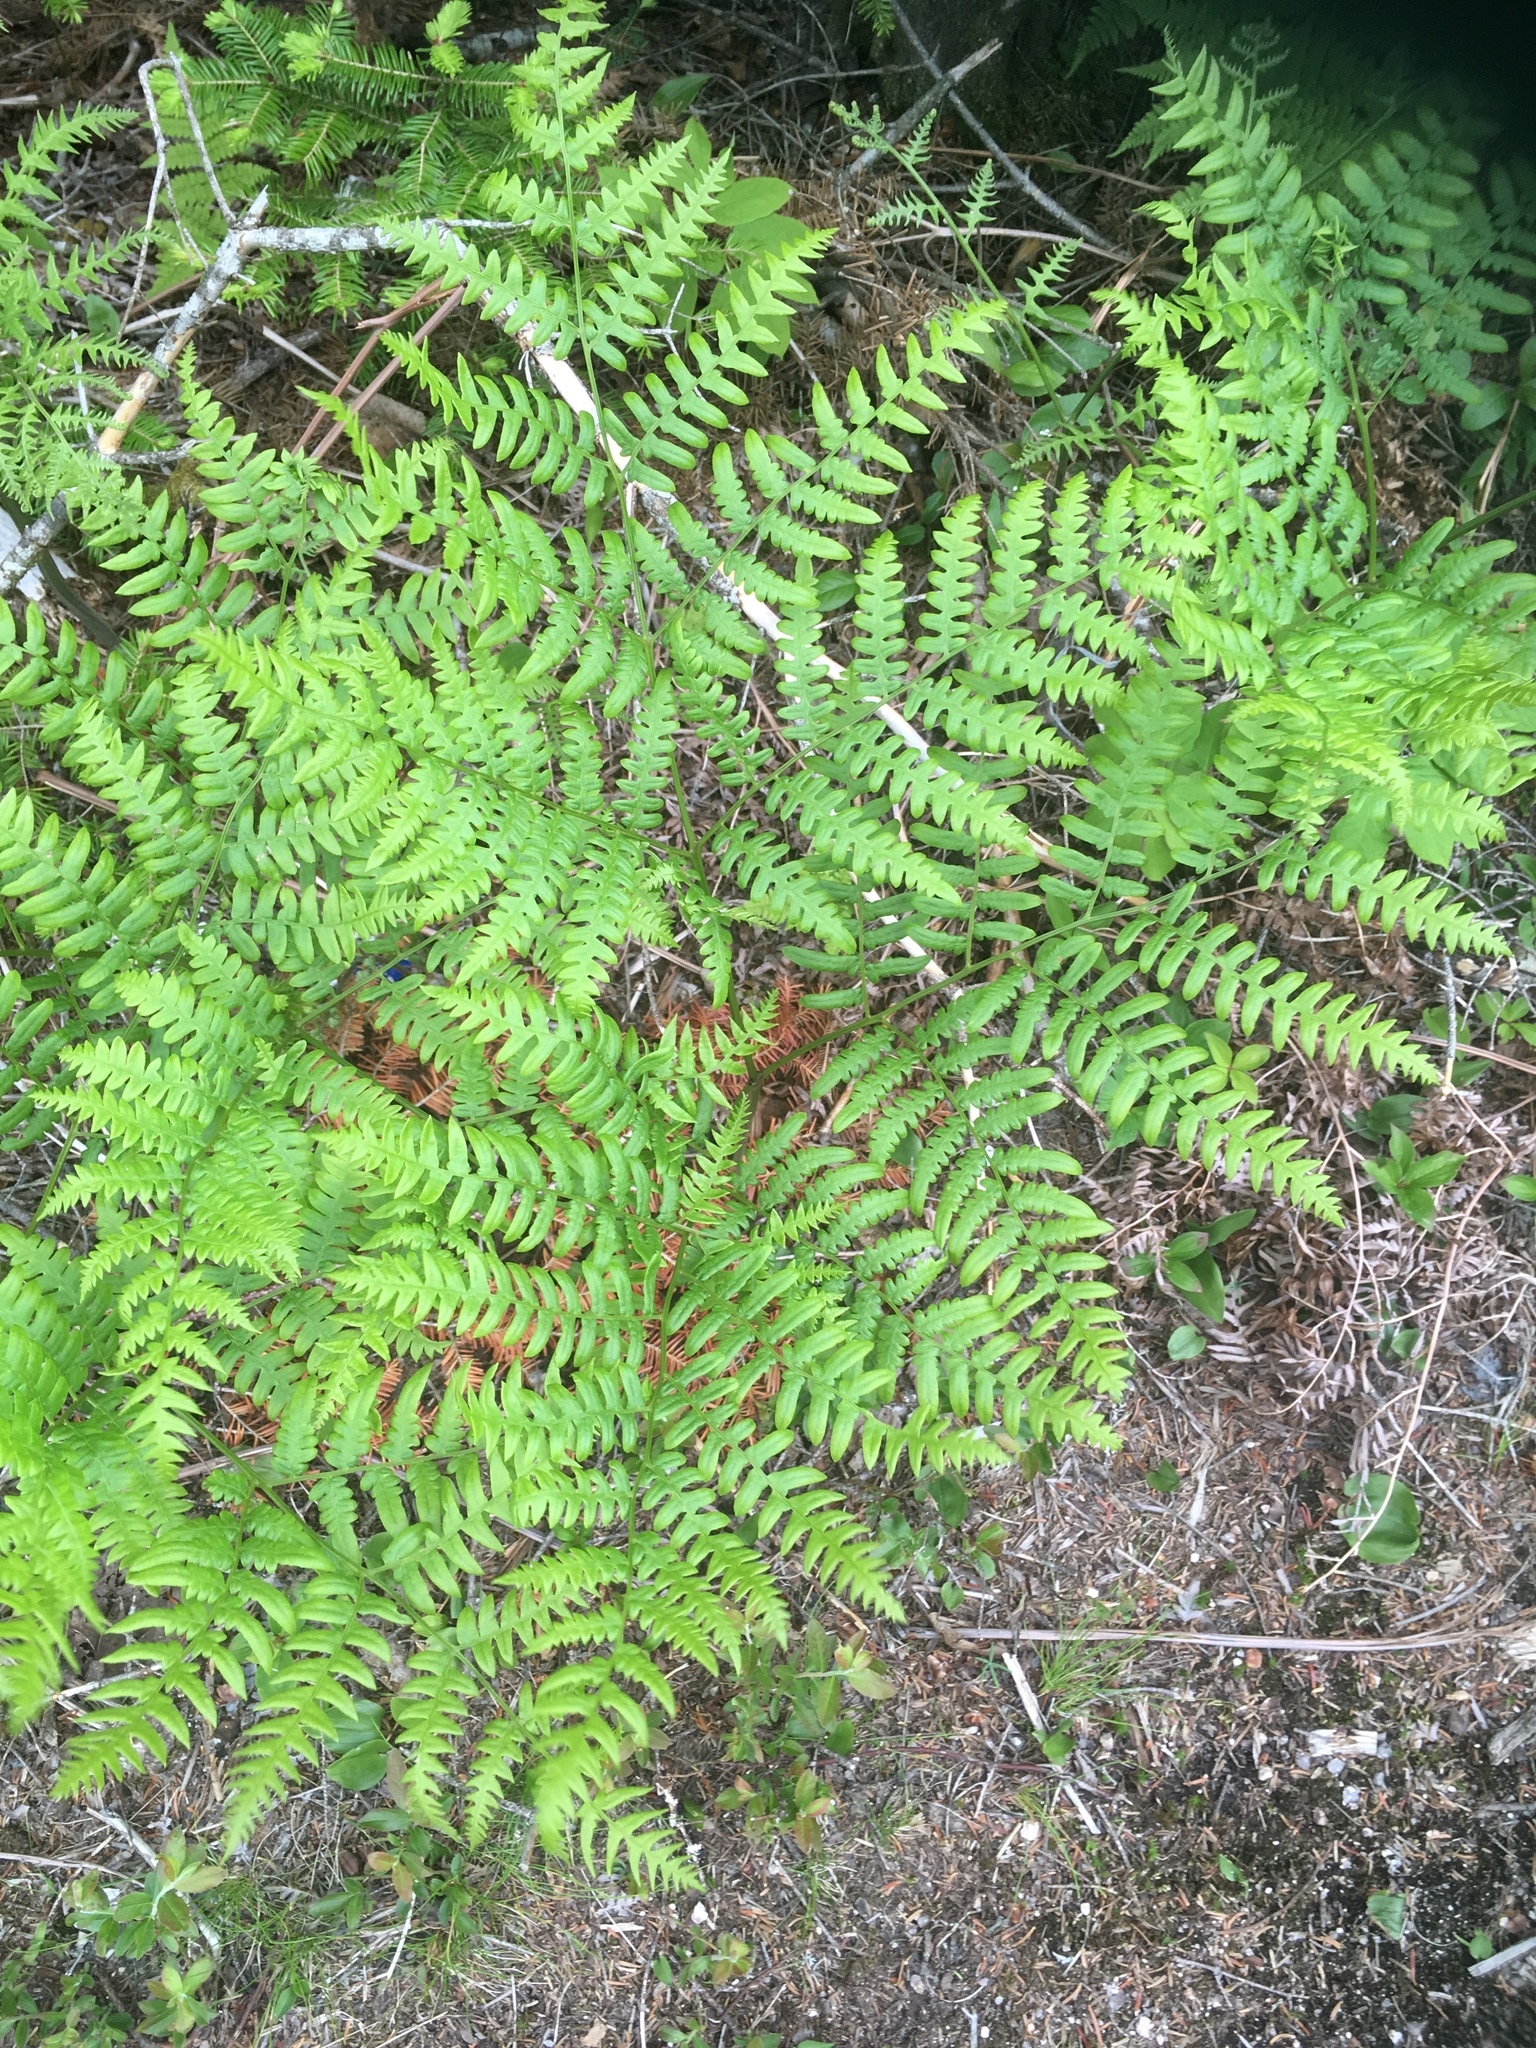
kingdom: Plantae
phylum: Tracheophyta
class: Polypodiopsida
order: Polypodiales
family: Dennstaedtiaceae
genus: Pteridium
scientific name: Pteridium aquilinum
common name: Bracken
